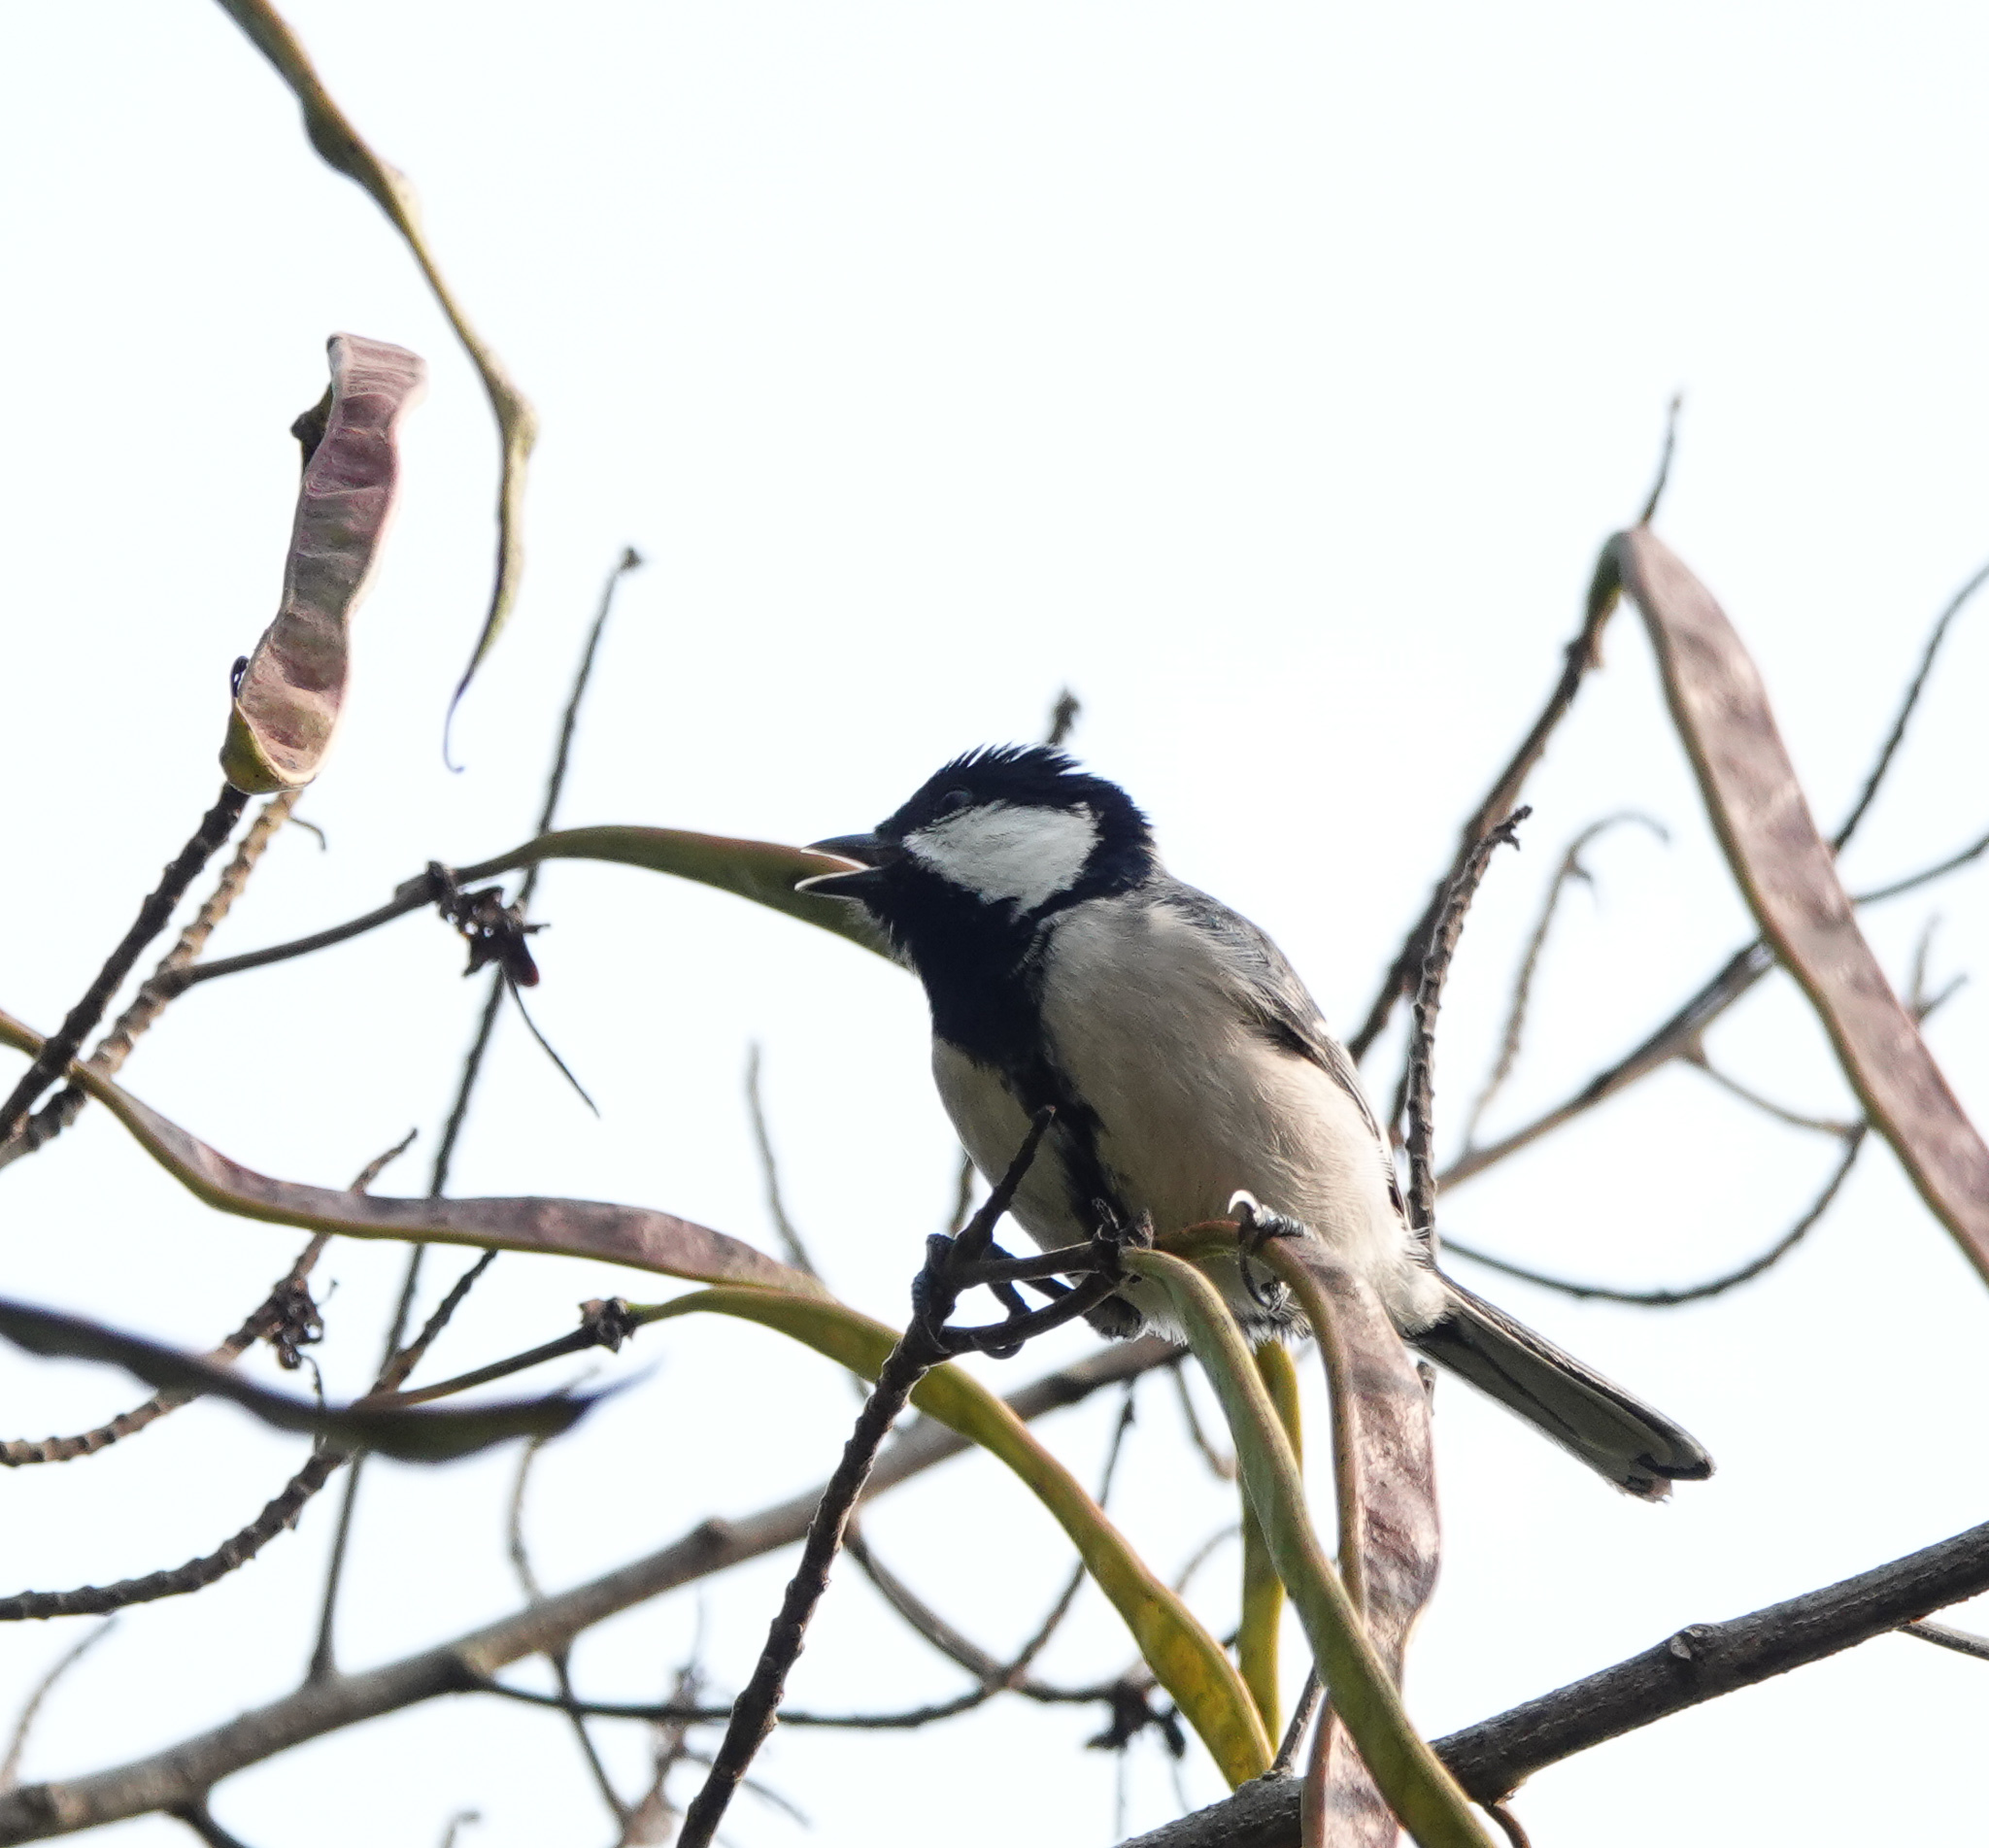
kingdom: Animalia
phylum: Chordata
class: Aves
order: Passeriformes
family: Paridae
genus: Parus
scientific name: Parus cinereus
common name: Cinereous tit
